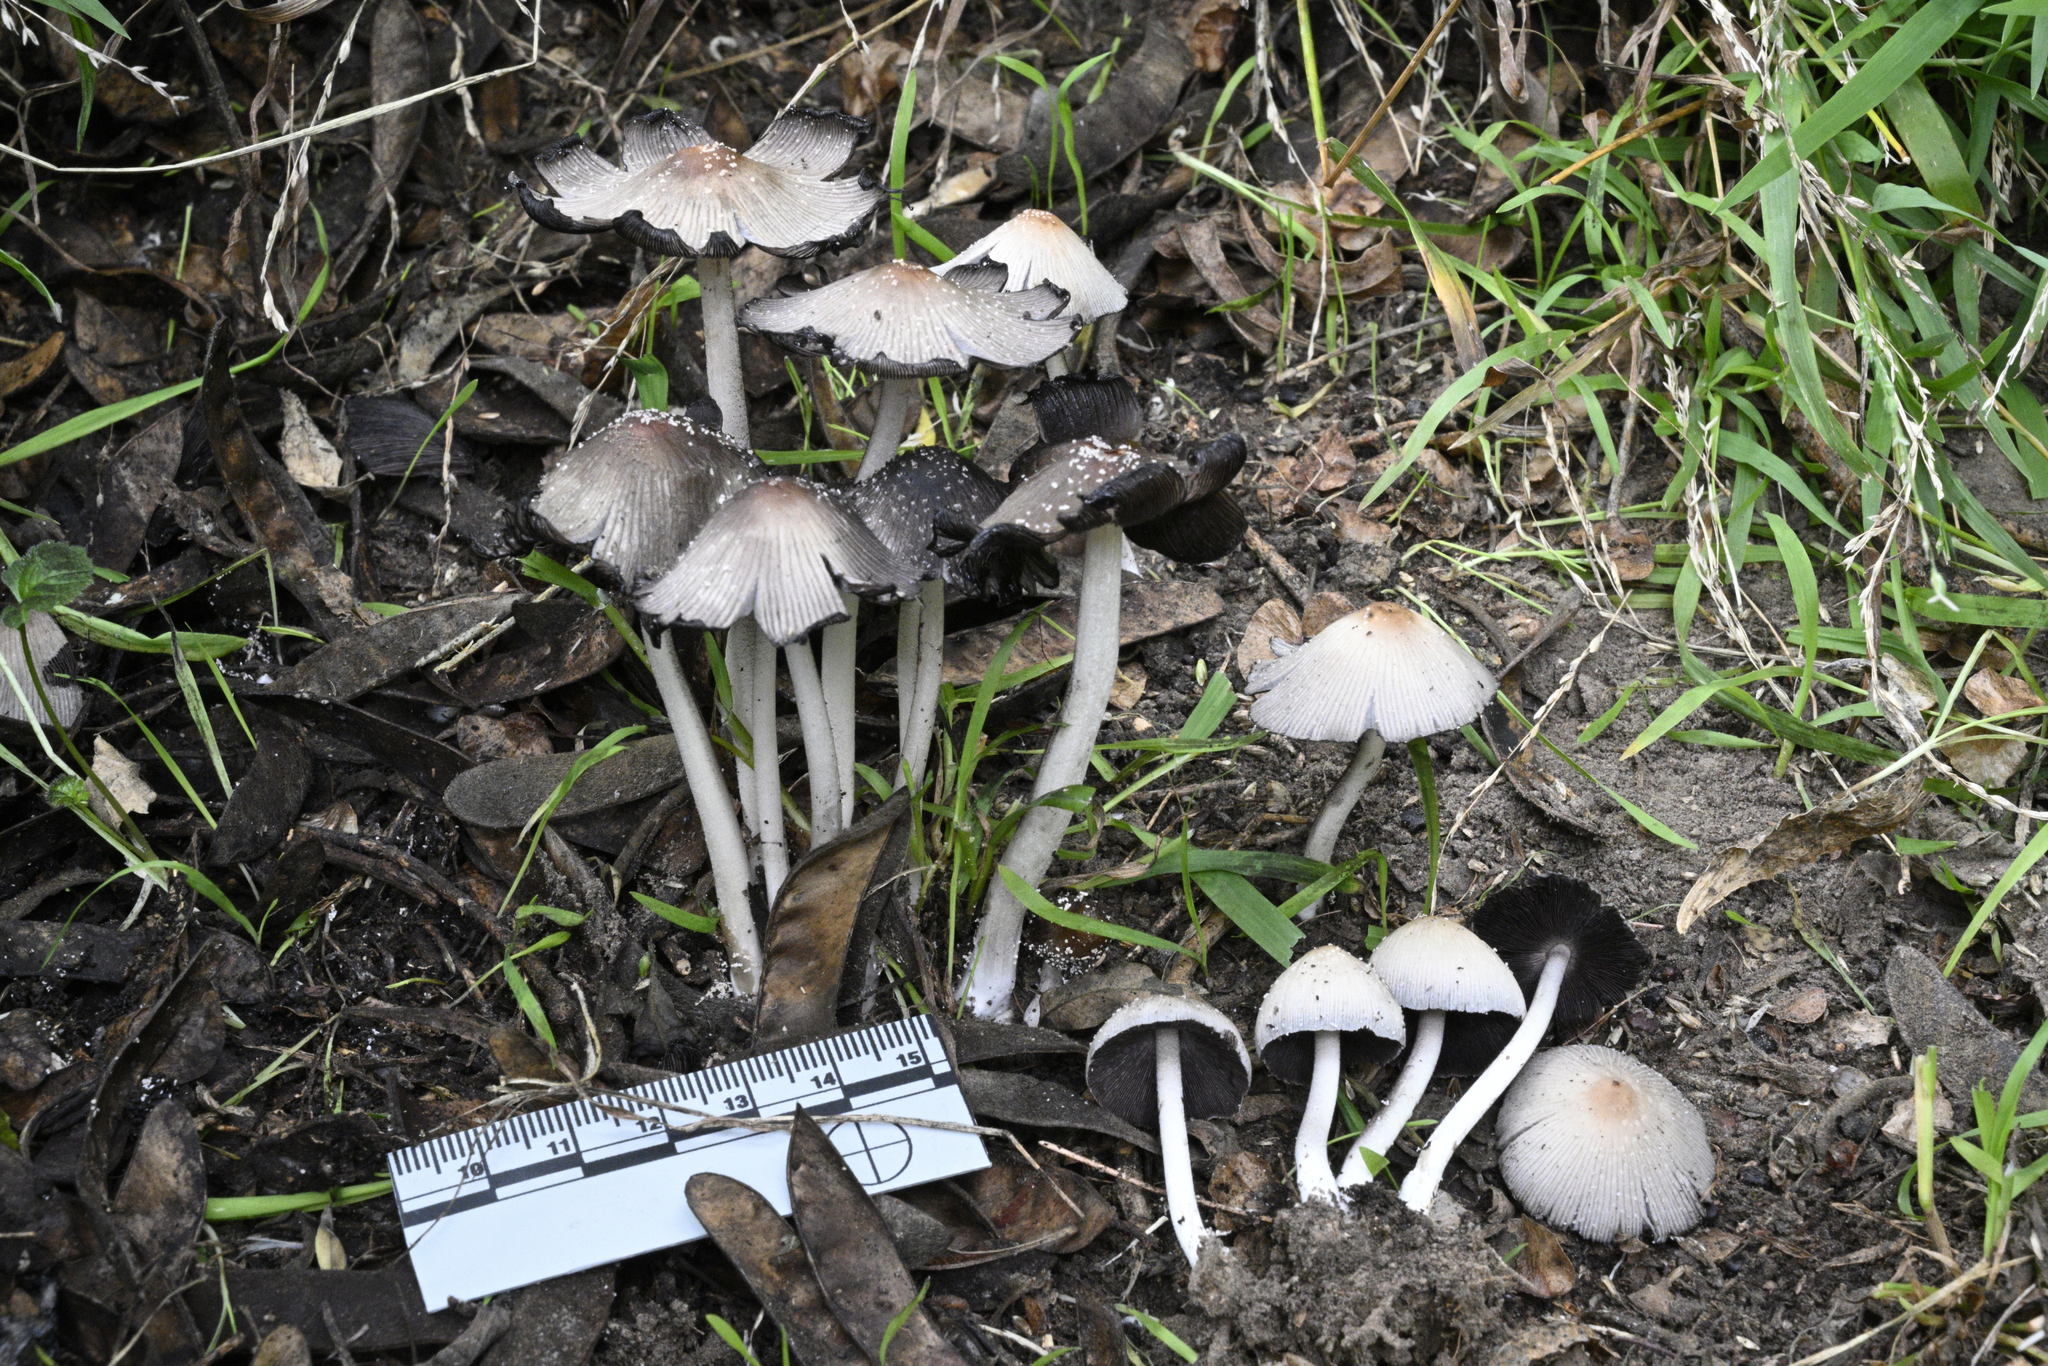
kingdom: Fungi
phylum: Basidiomycota
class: Agaricomycetes
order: Agaricales
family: Psathyrellaceae
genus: Coprinellus
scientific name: Coprinellus
